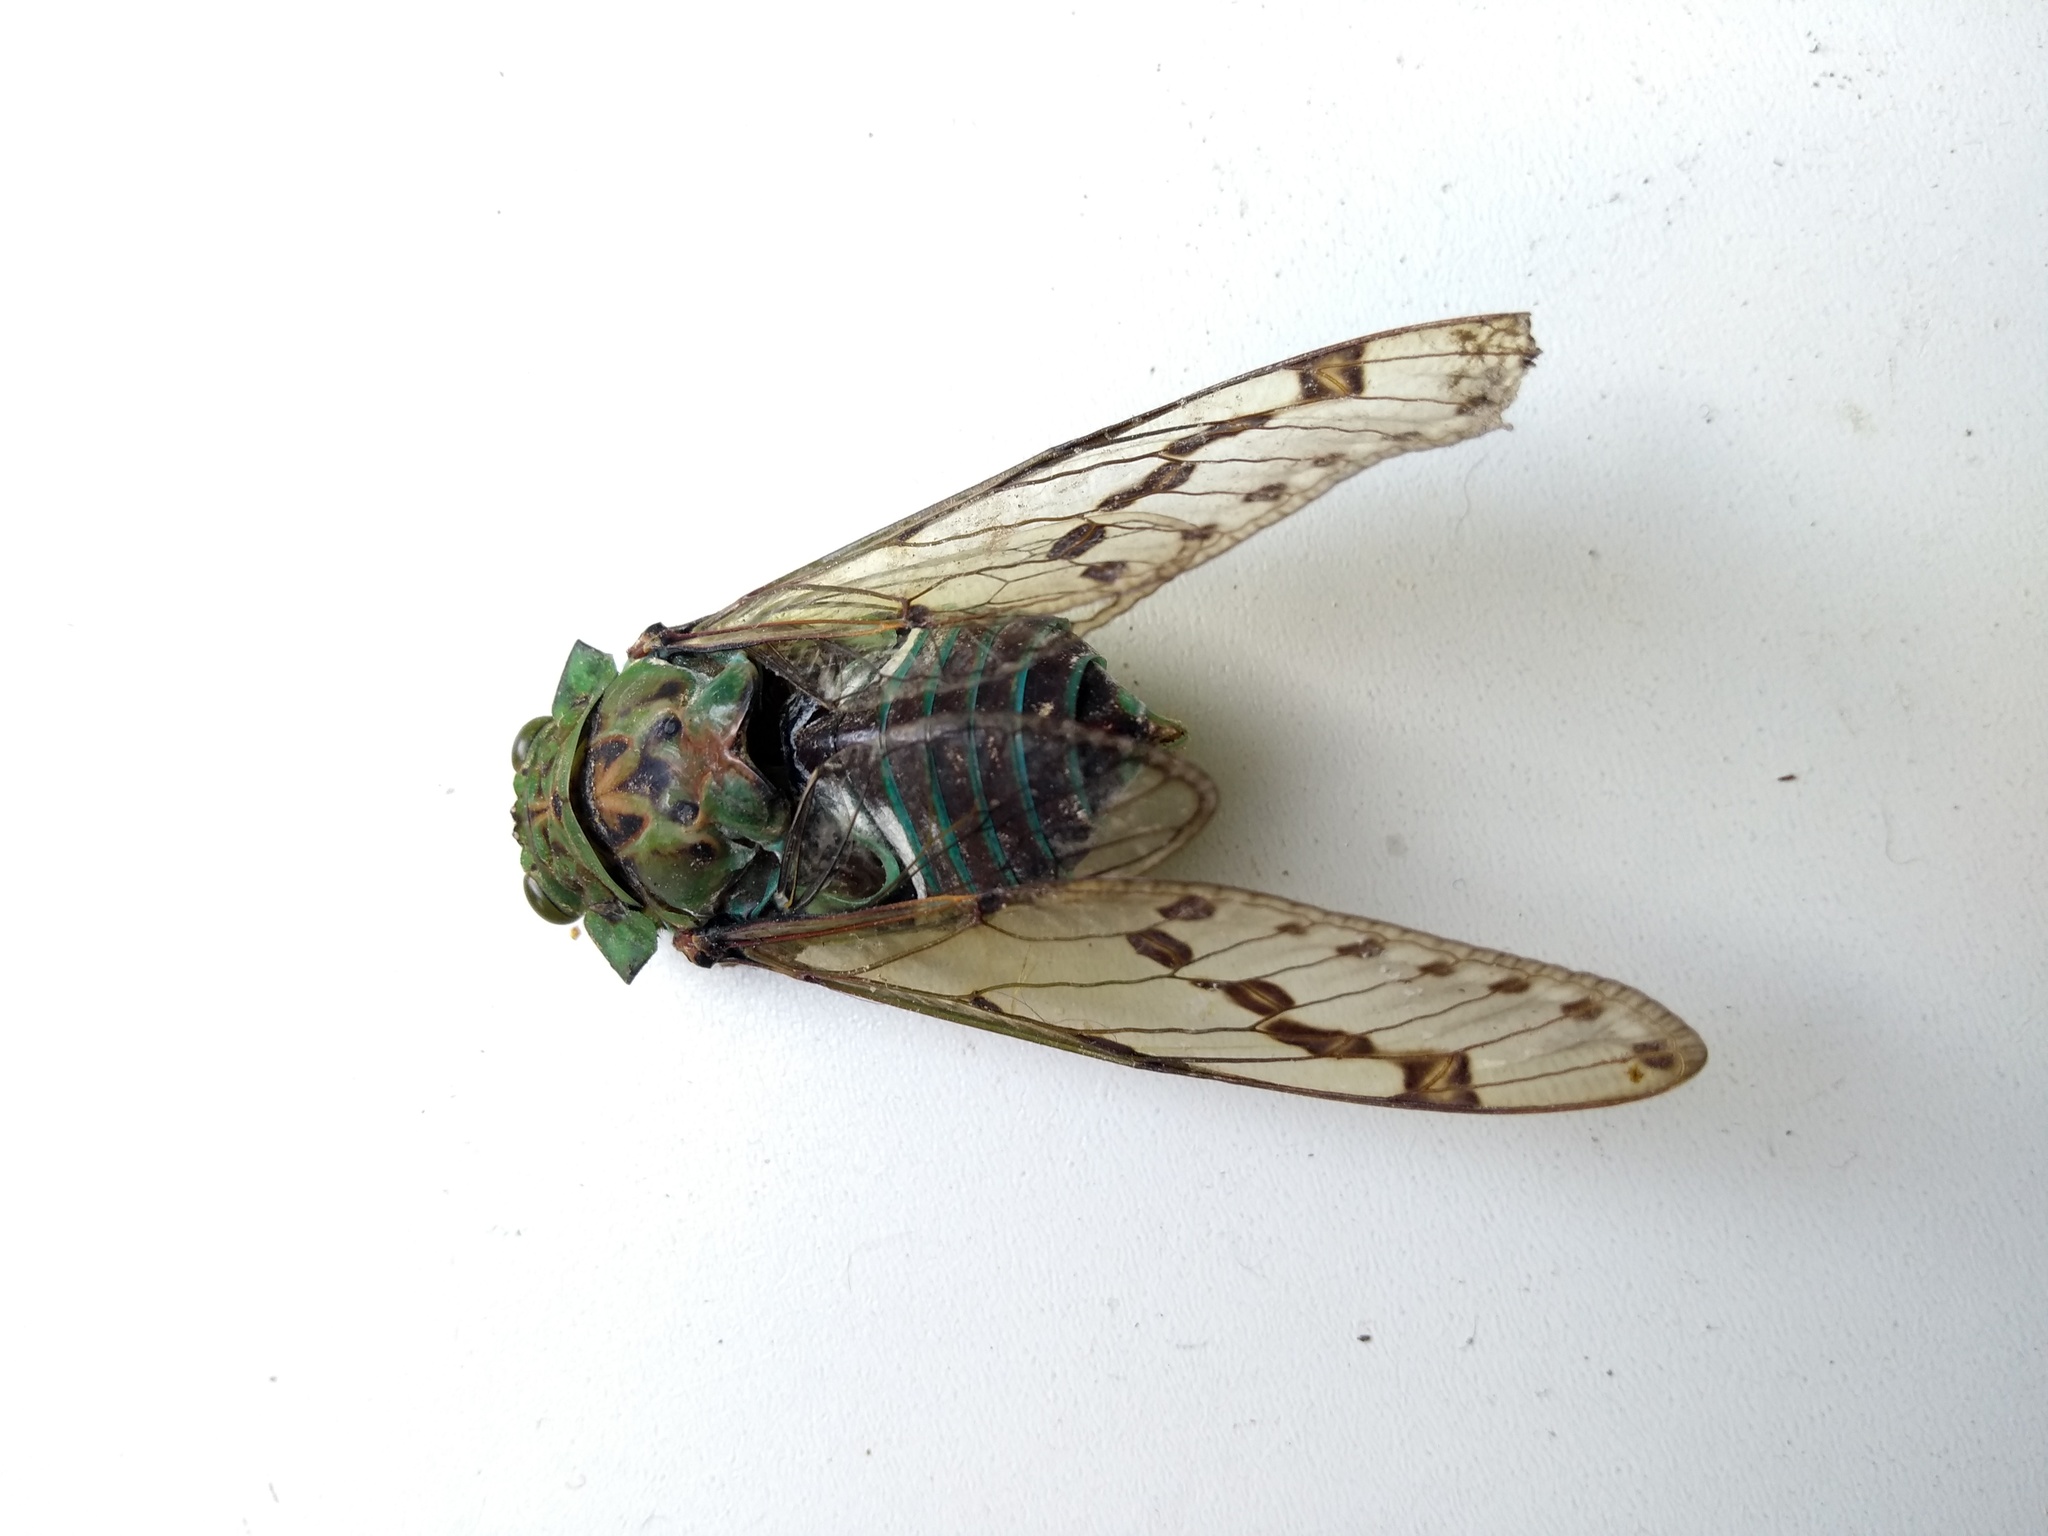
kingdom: Animalia
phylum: Arthropoda
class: Insecta
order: Hemiptera
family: Cicadidae
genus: Zammara
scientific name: Zammara tympanum
